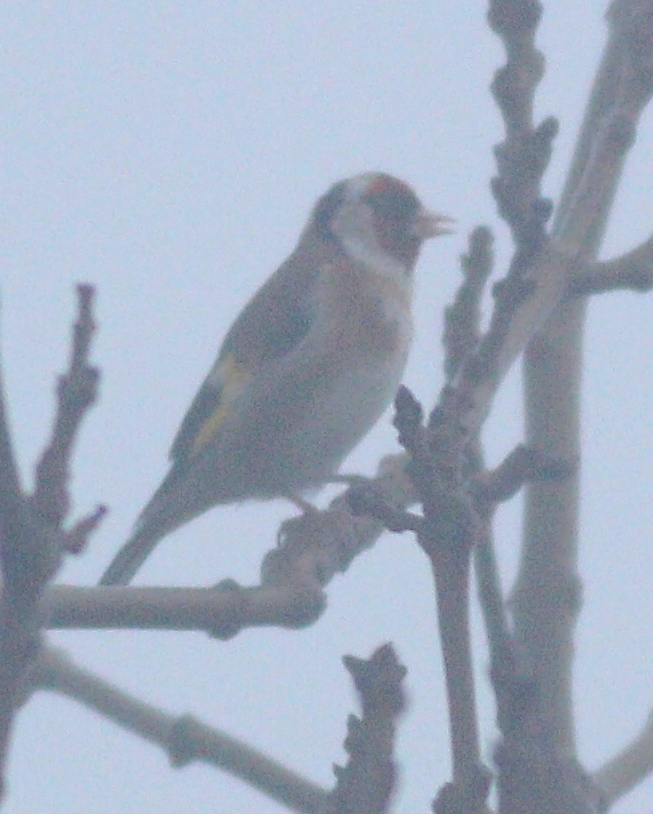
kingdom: Animalia
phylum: Chordata
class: Aves
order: Passeriformes
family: Fringillidae
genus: Carduelis
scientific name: Carduelis carduelis
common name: European goldfinch
